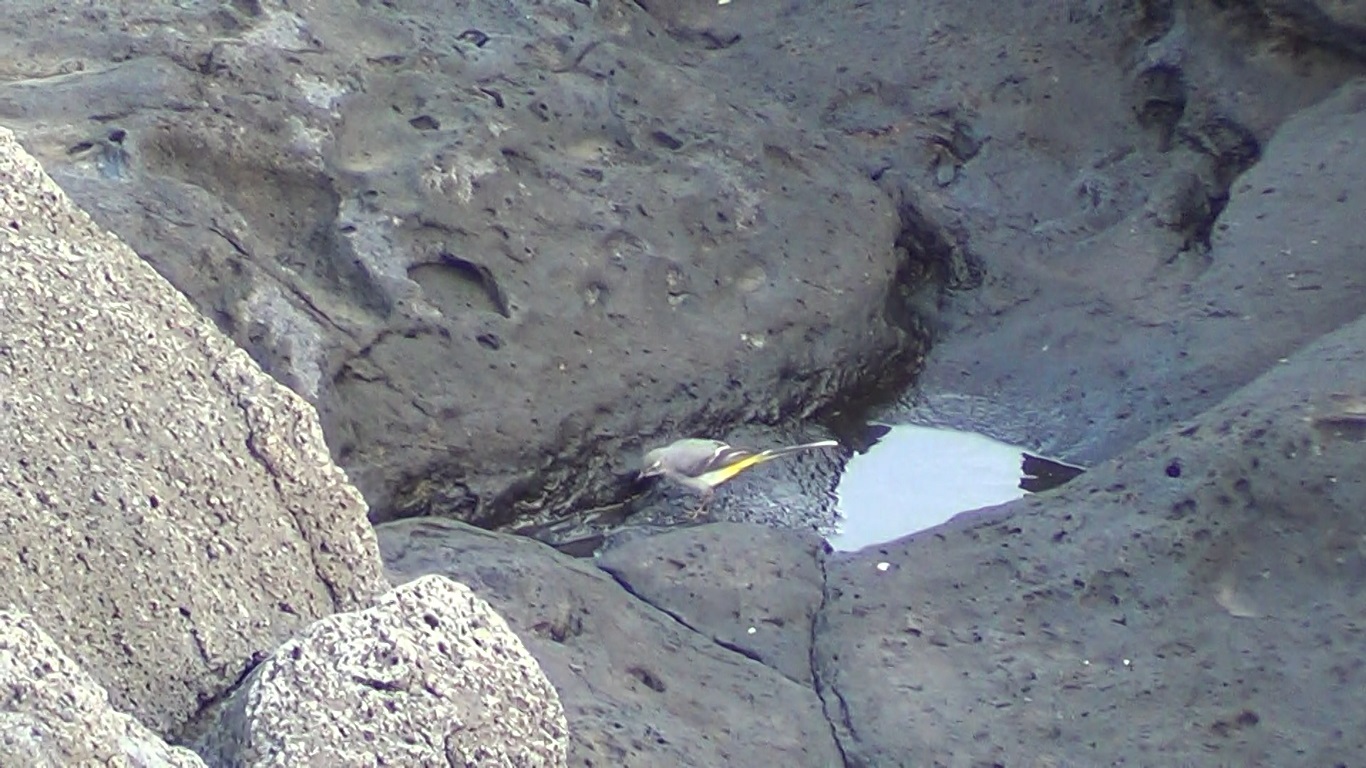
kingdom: Animalia
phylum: Chordata
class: Aves
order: Passeriformes
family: Motacillidae
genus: Motacilla
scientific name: Motacilla cinerea
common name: Grey wagtail
